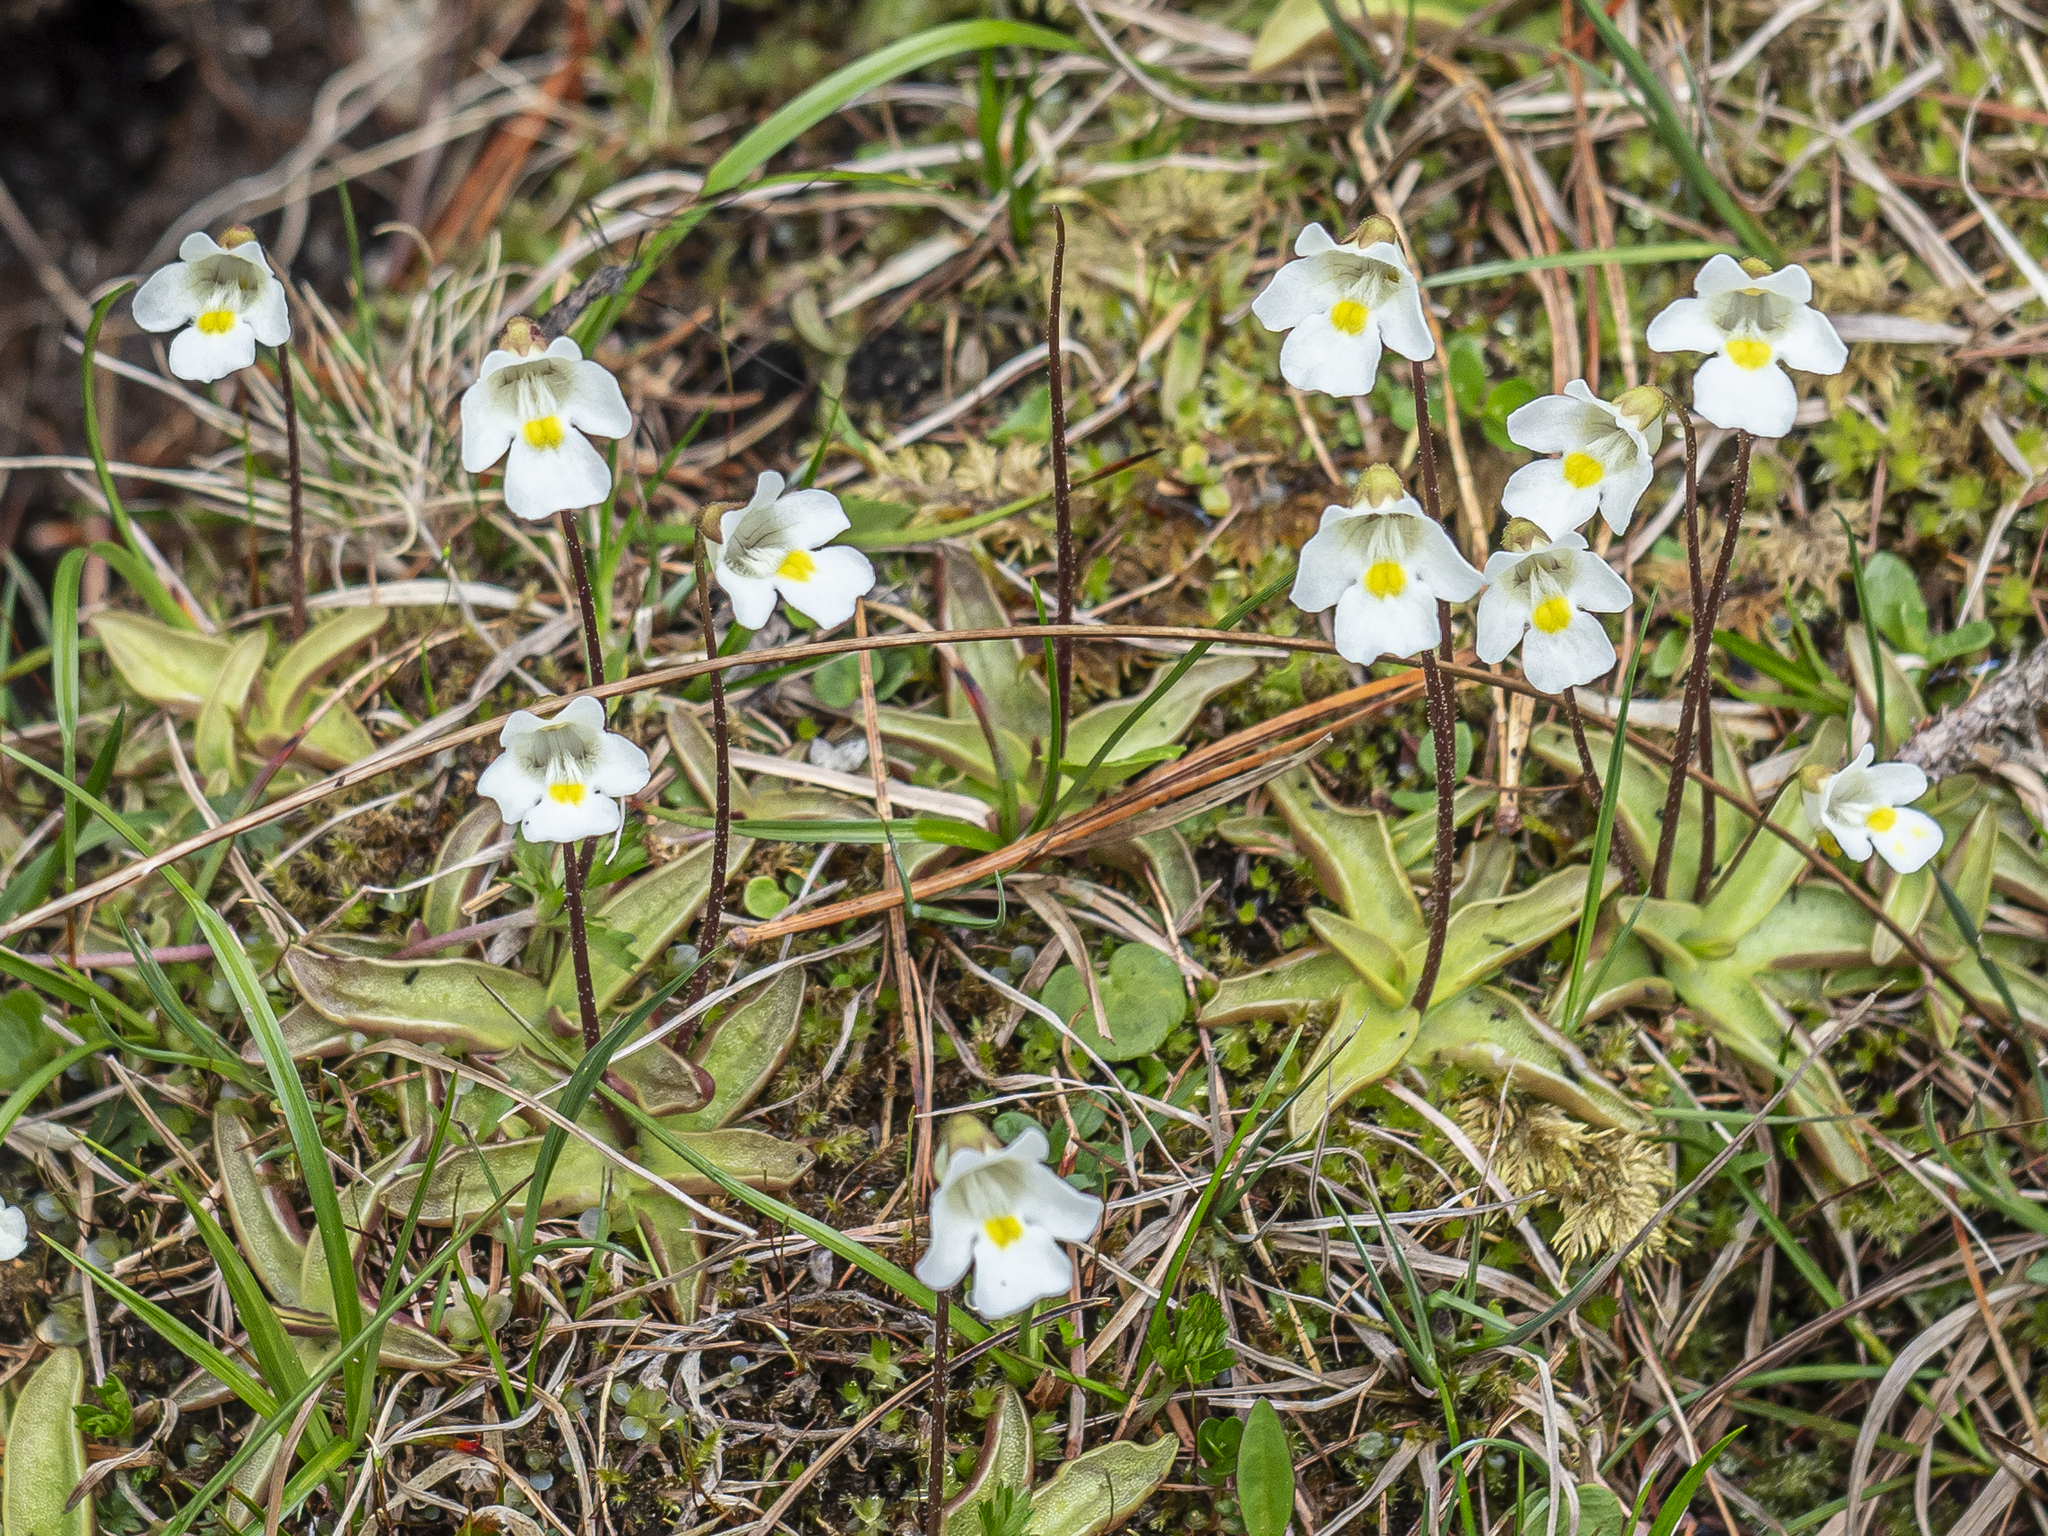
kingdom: Plantae
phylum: Tracheophyta
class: Magnoliopsida
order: Lamiales
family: Lentibulariaceae
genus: Pinguicula
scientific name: Pinguicula alpina
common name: Alpine butterwort
